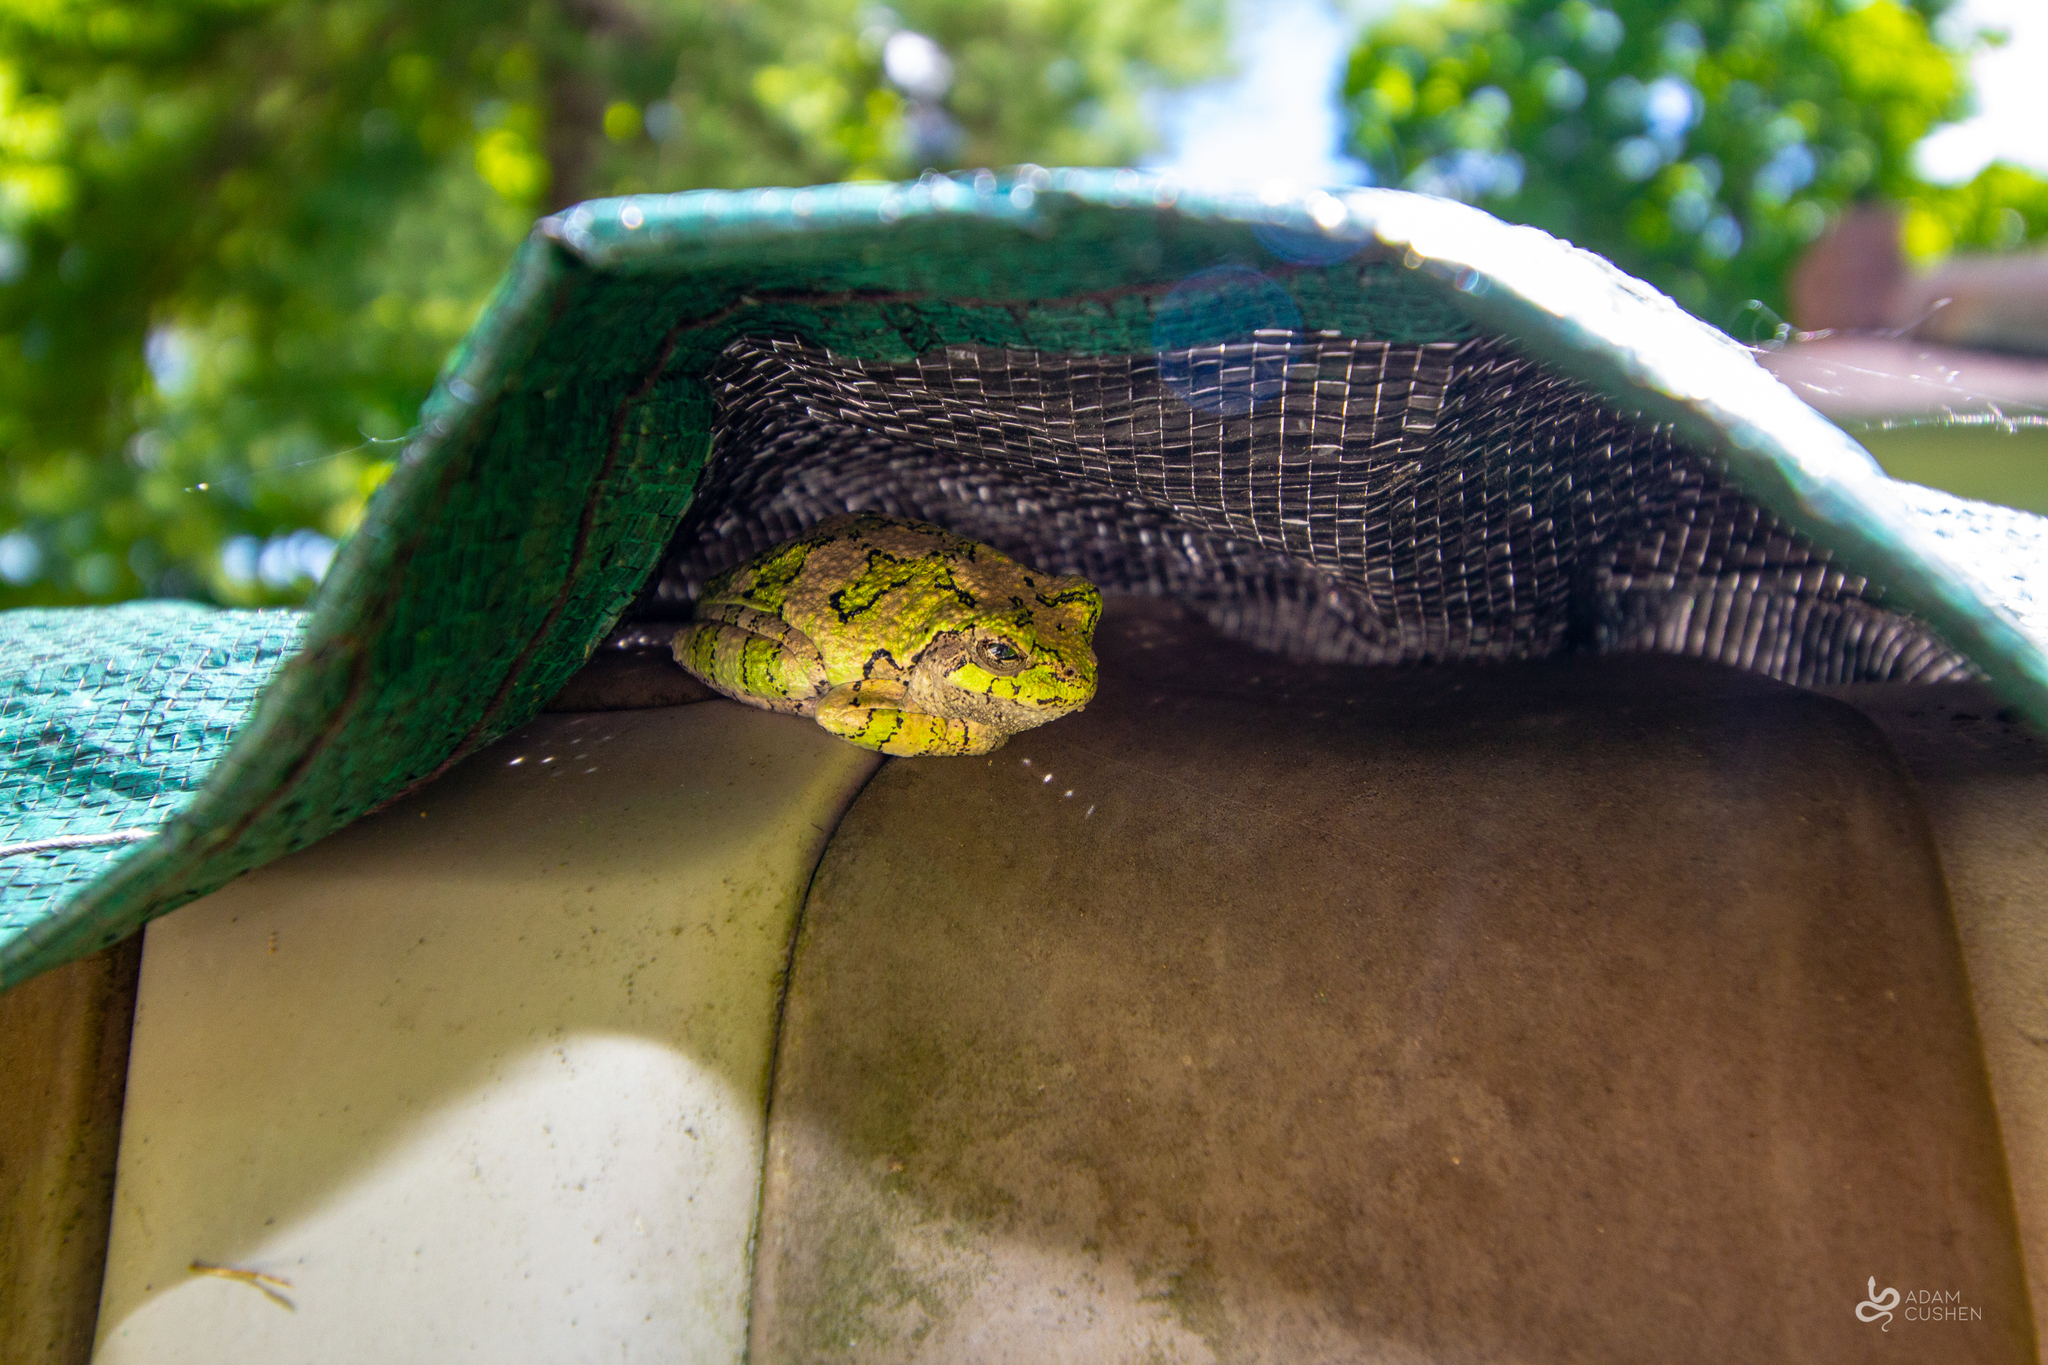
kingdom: Animalia
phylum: Chordata
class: Amphibia
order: Anura
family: Hylidae
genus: Dryophytes
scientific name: Dryophytes versicolor
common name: Gray treefrog
